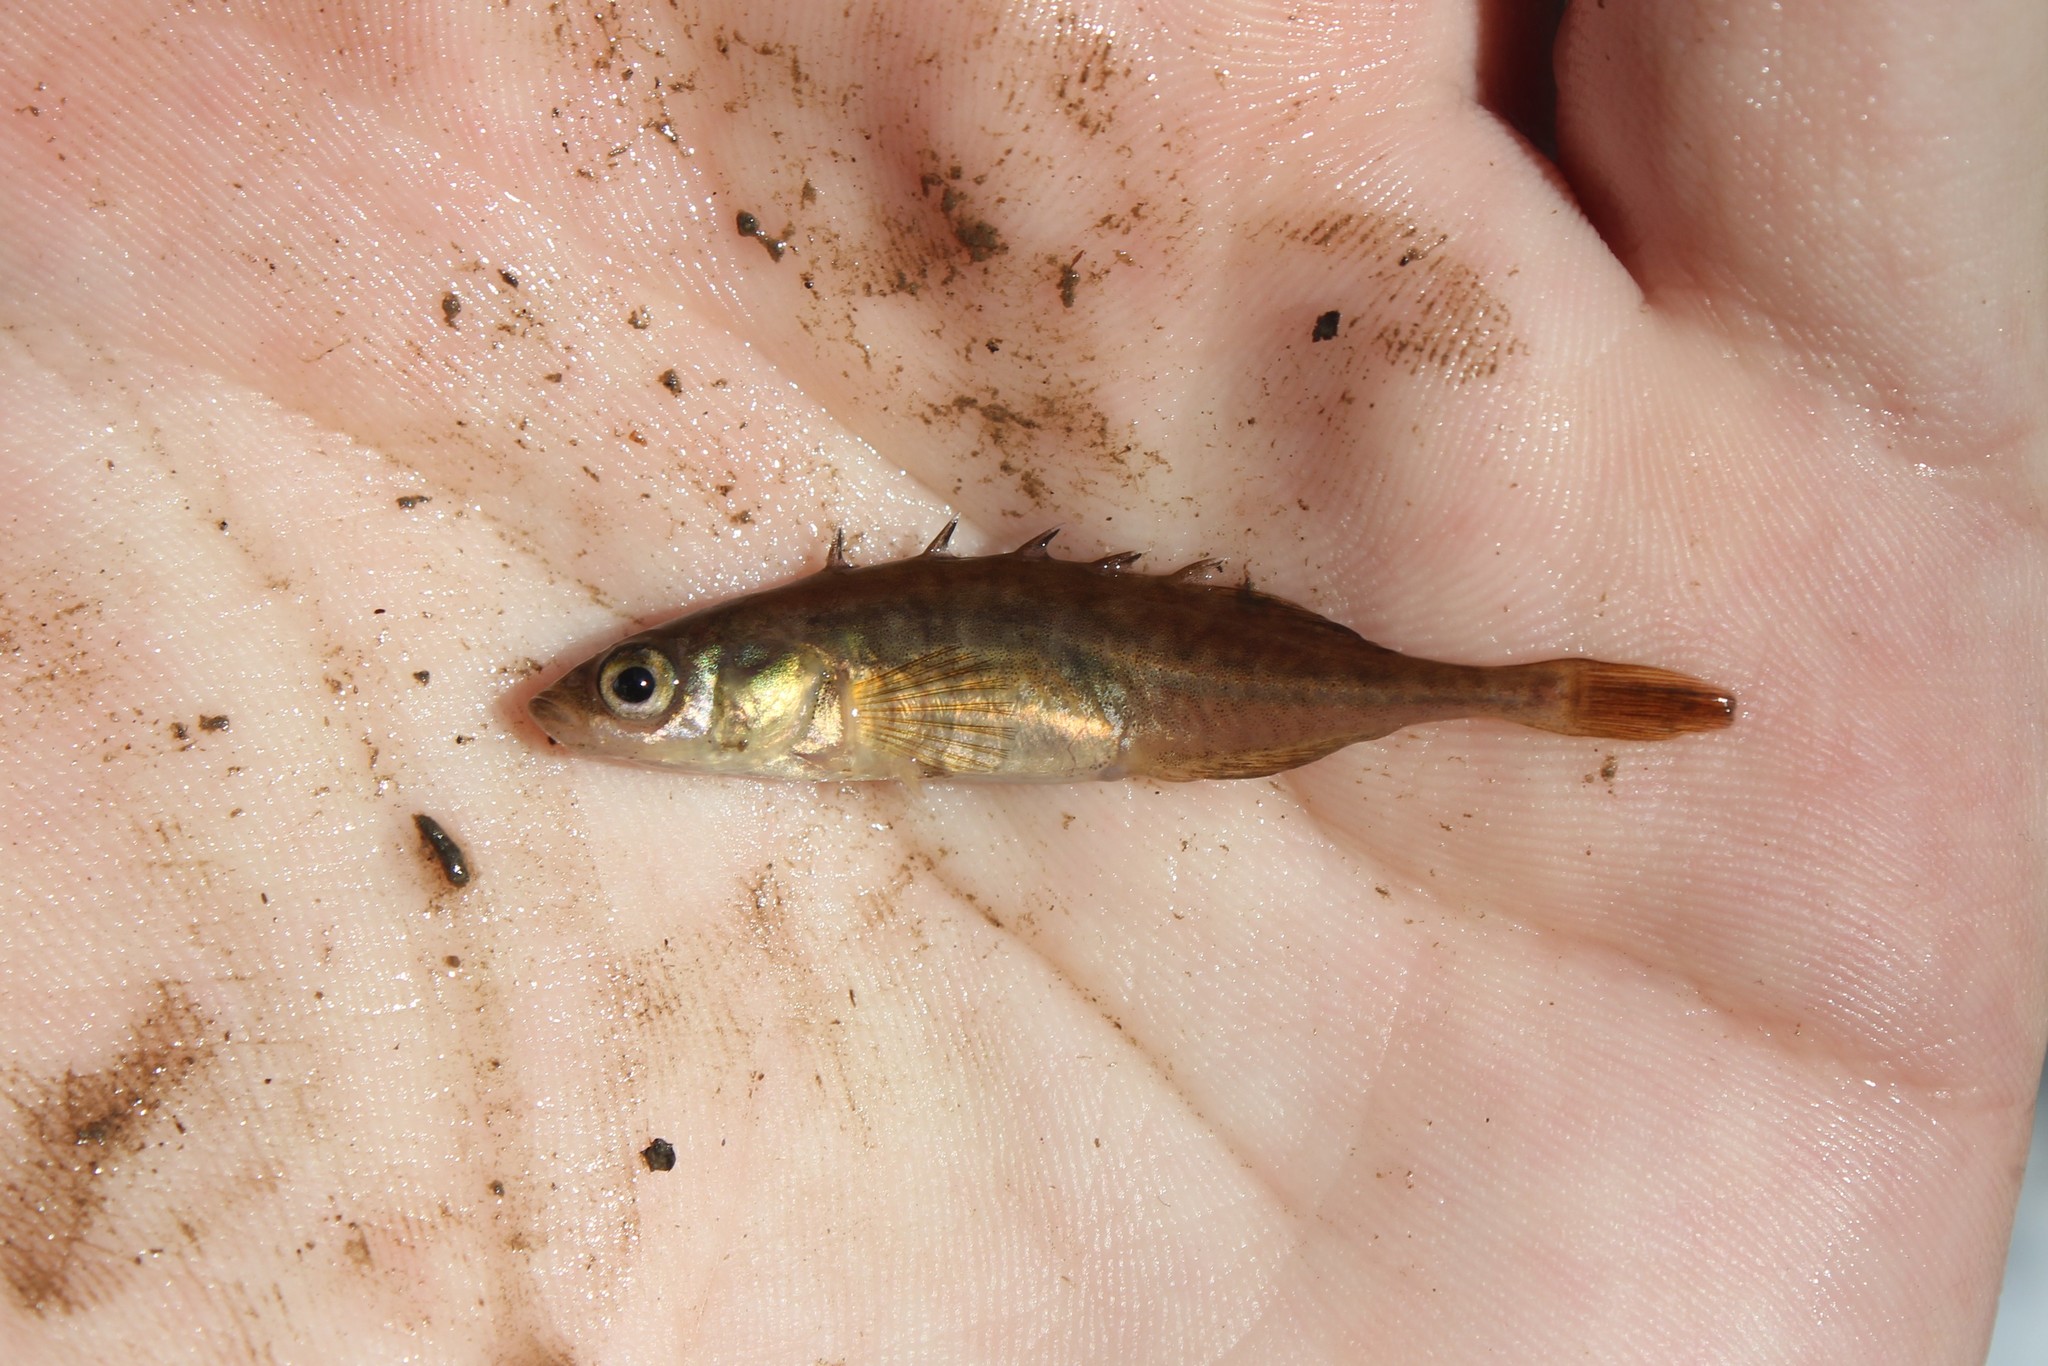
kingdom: Animalia
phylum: Chordata
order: Gasterosteiformes
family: Gasterosteidae
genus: Culaea
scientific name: Culaea inconstans
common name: Brook stickleback
